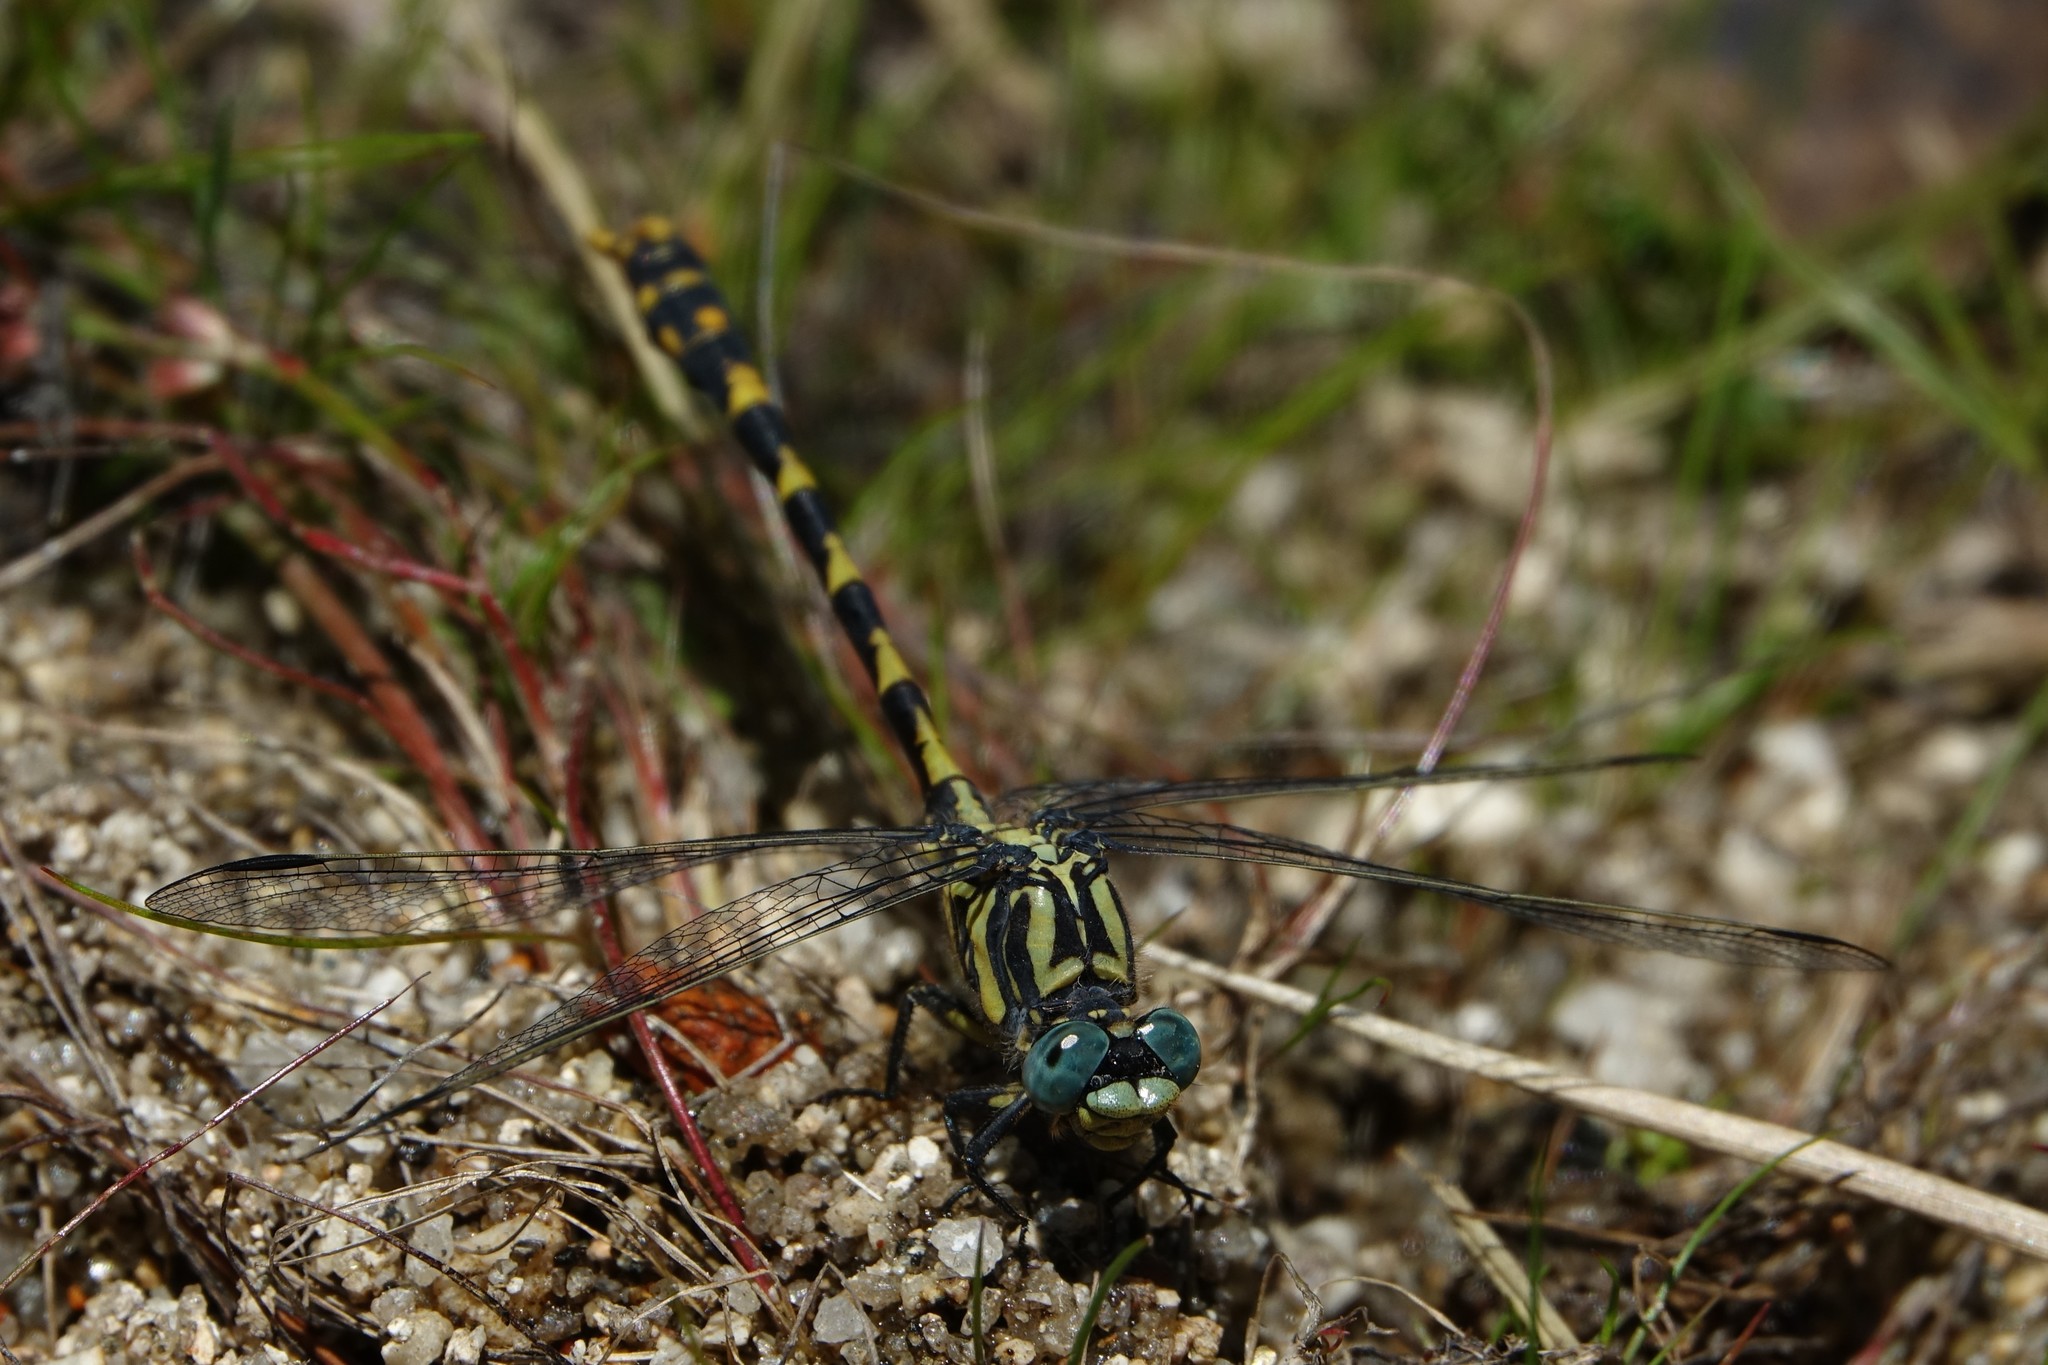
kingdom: Animalia
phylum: Arthropoda
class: Insecta
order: Odonata
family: Gomphidae
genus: Onychogomphus
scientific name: Onychogomphus uncatus
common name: Large pincertail
